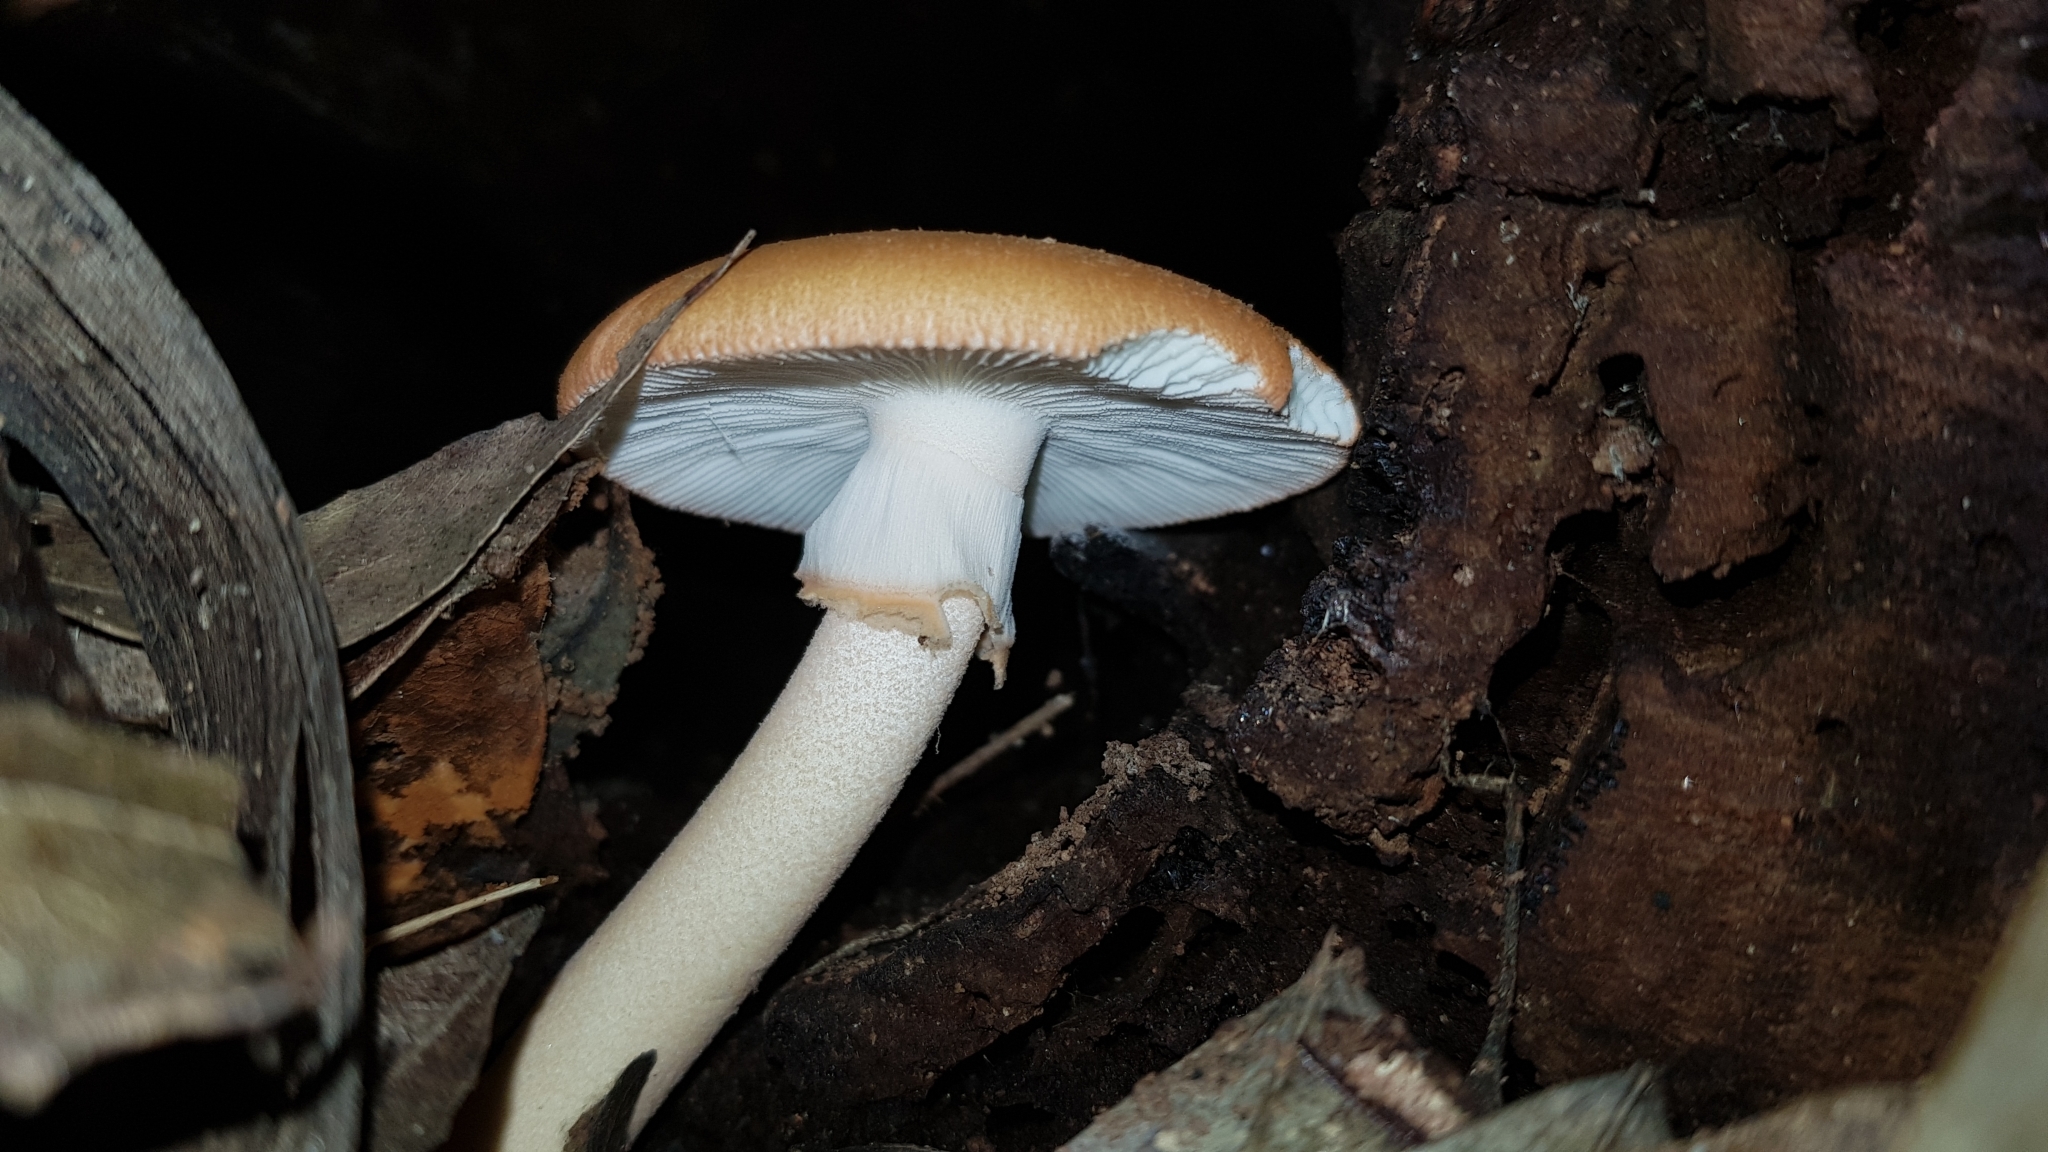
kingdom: Fungi
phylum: Basidiomycota
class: Agaricomycetes
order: Agaricales
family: Amanitaceae
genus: Amanita
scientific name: Amanita armeniaca
